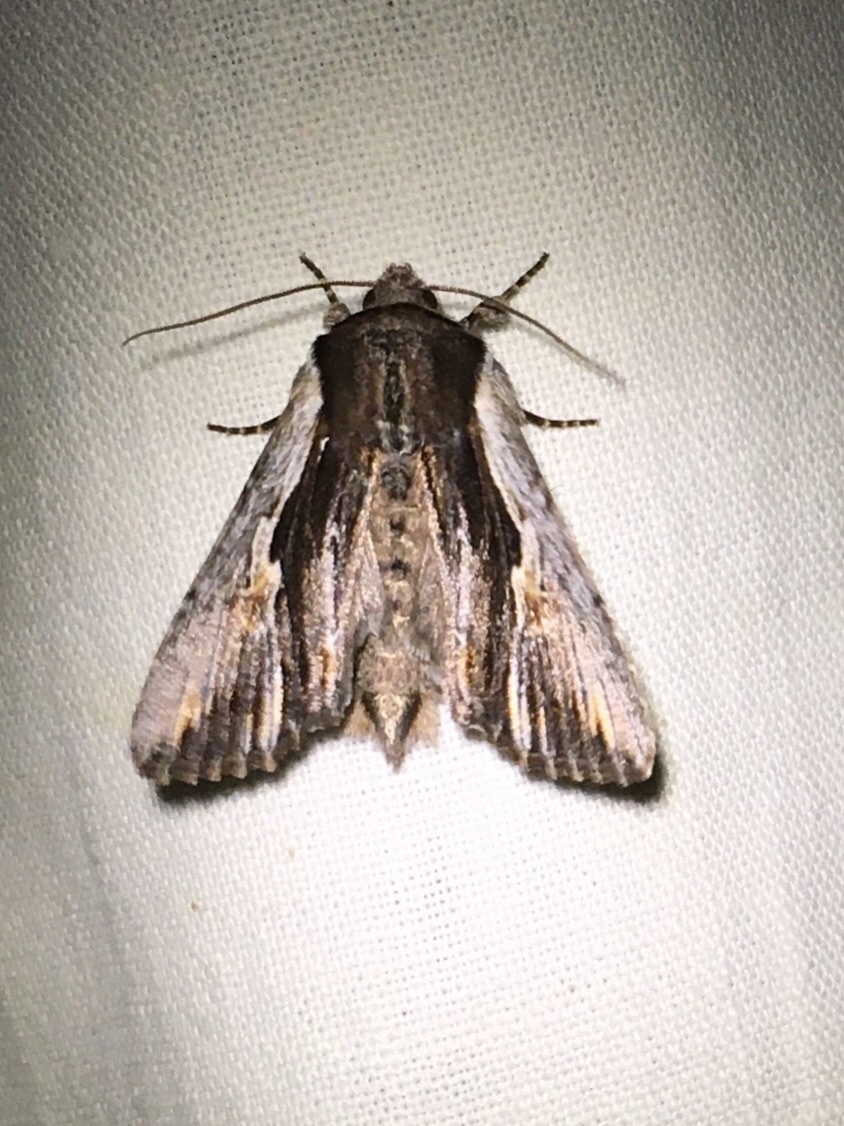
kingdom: Animalia
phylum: Arthropoda
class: Insecta
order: Lepidoptera
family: Noctuidae
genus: Achatia
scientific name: Achatia evicta
